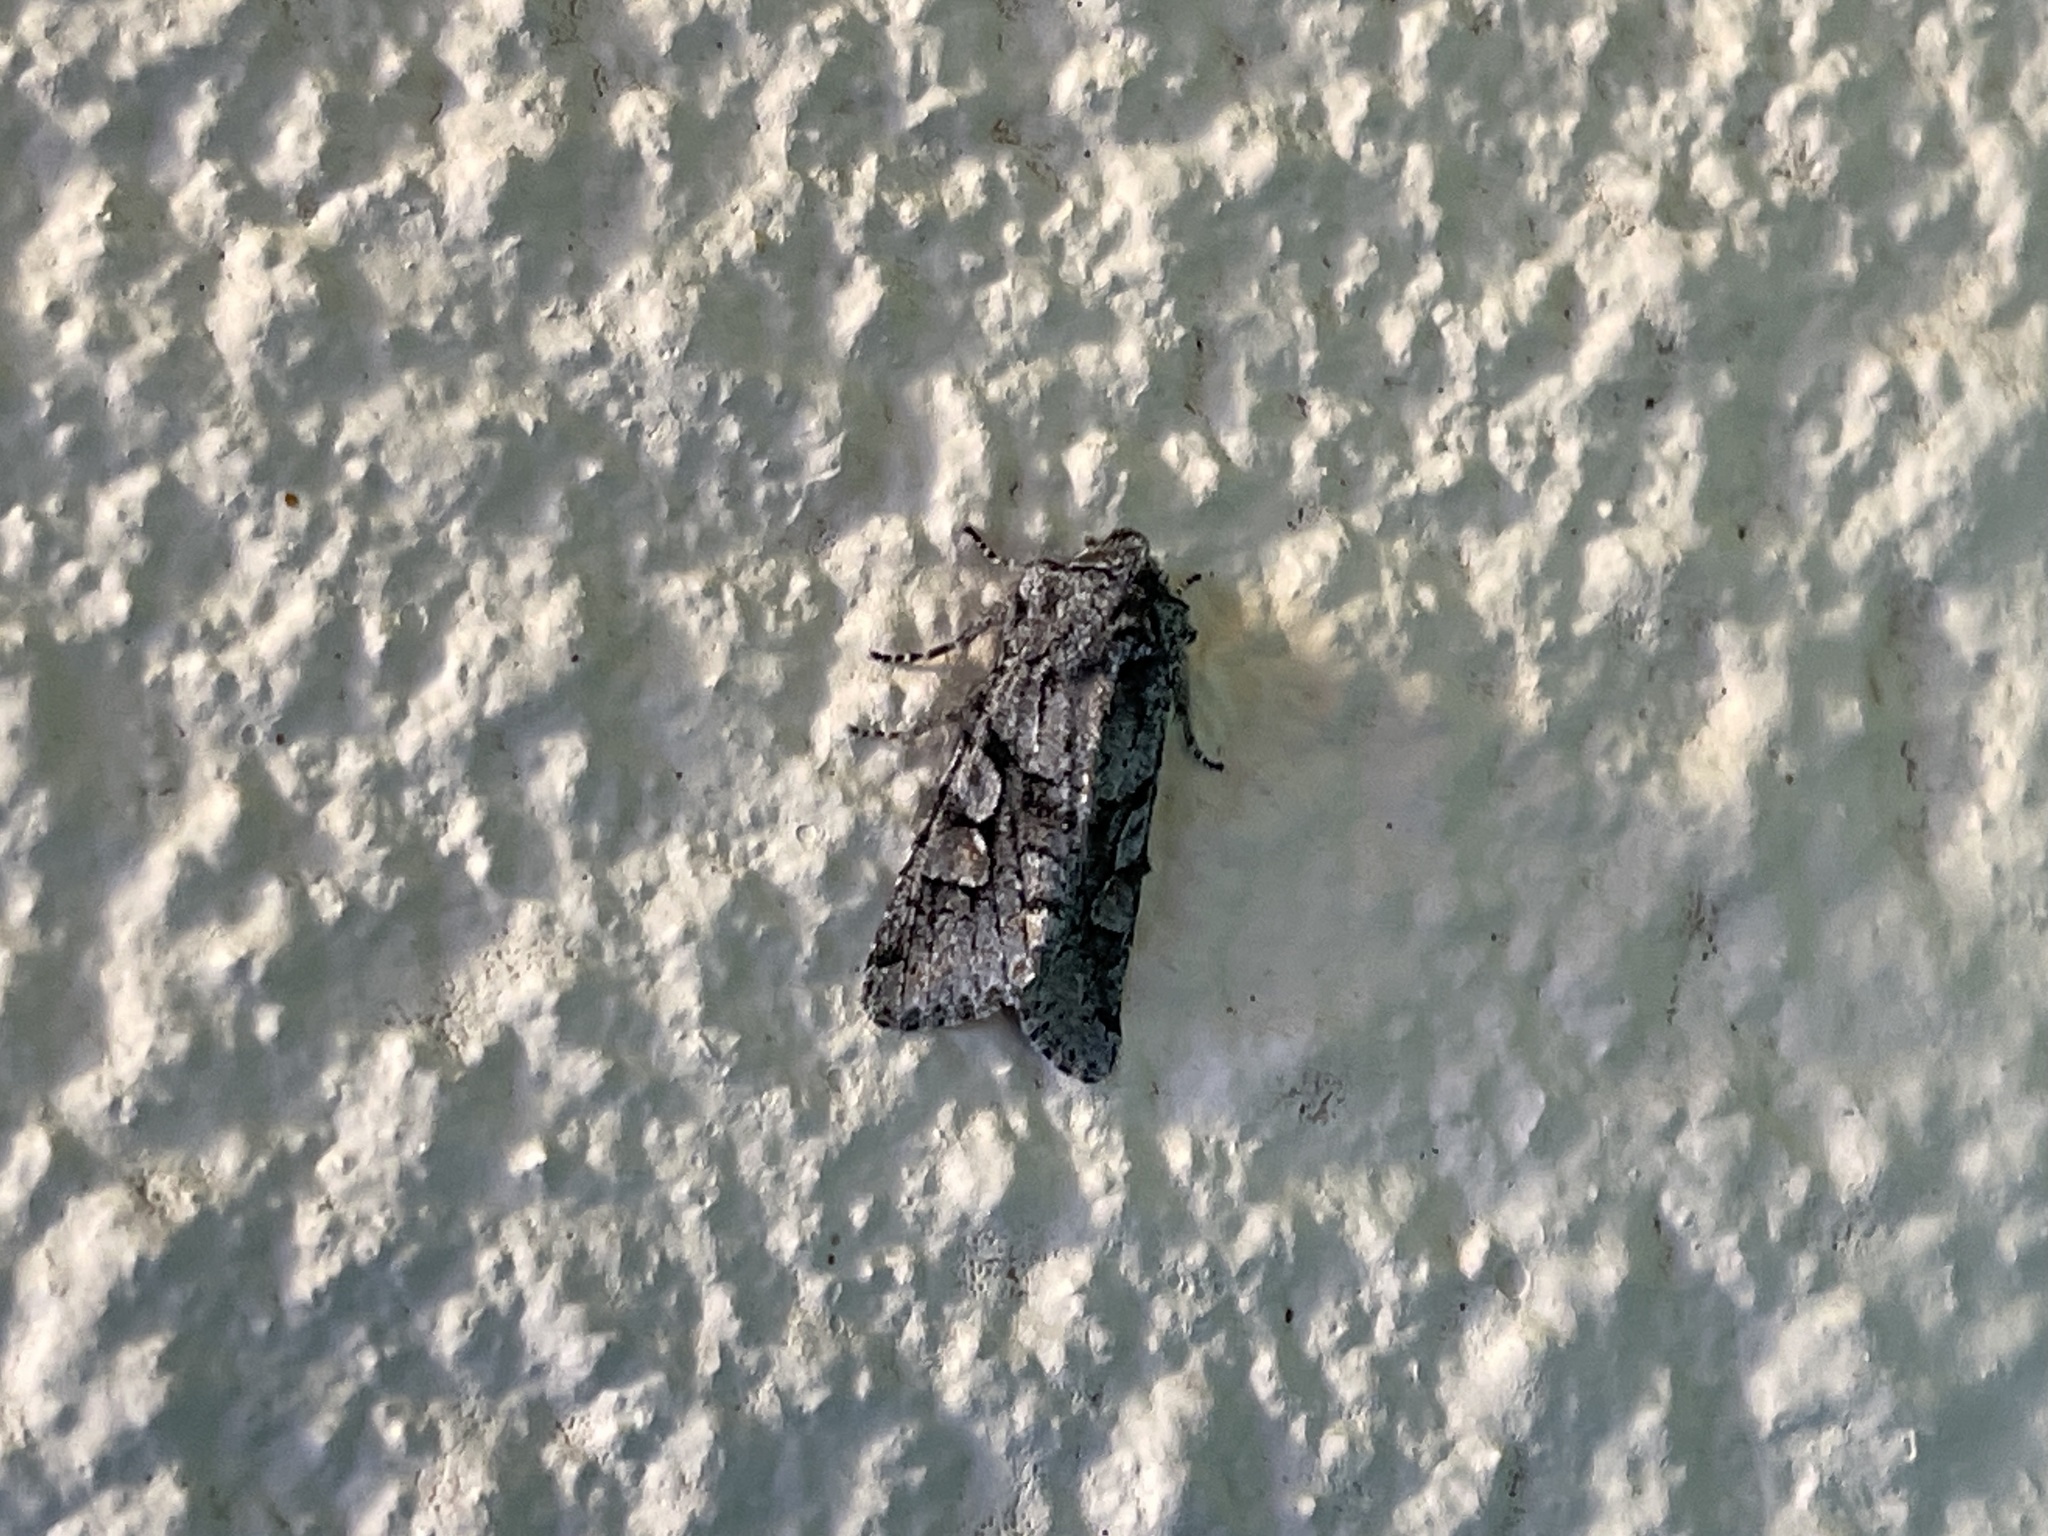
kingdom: Animalia
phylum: Arthropoda
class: Insecta
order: Lepidoptera
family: Noctuidae
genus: Egira
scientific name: Egira variabilis
